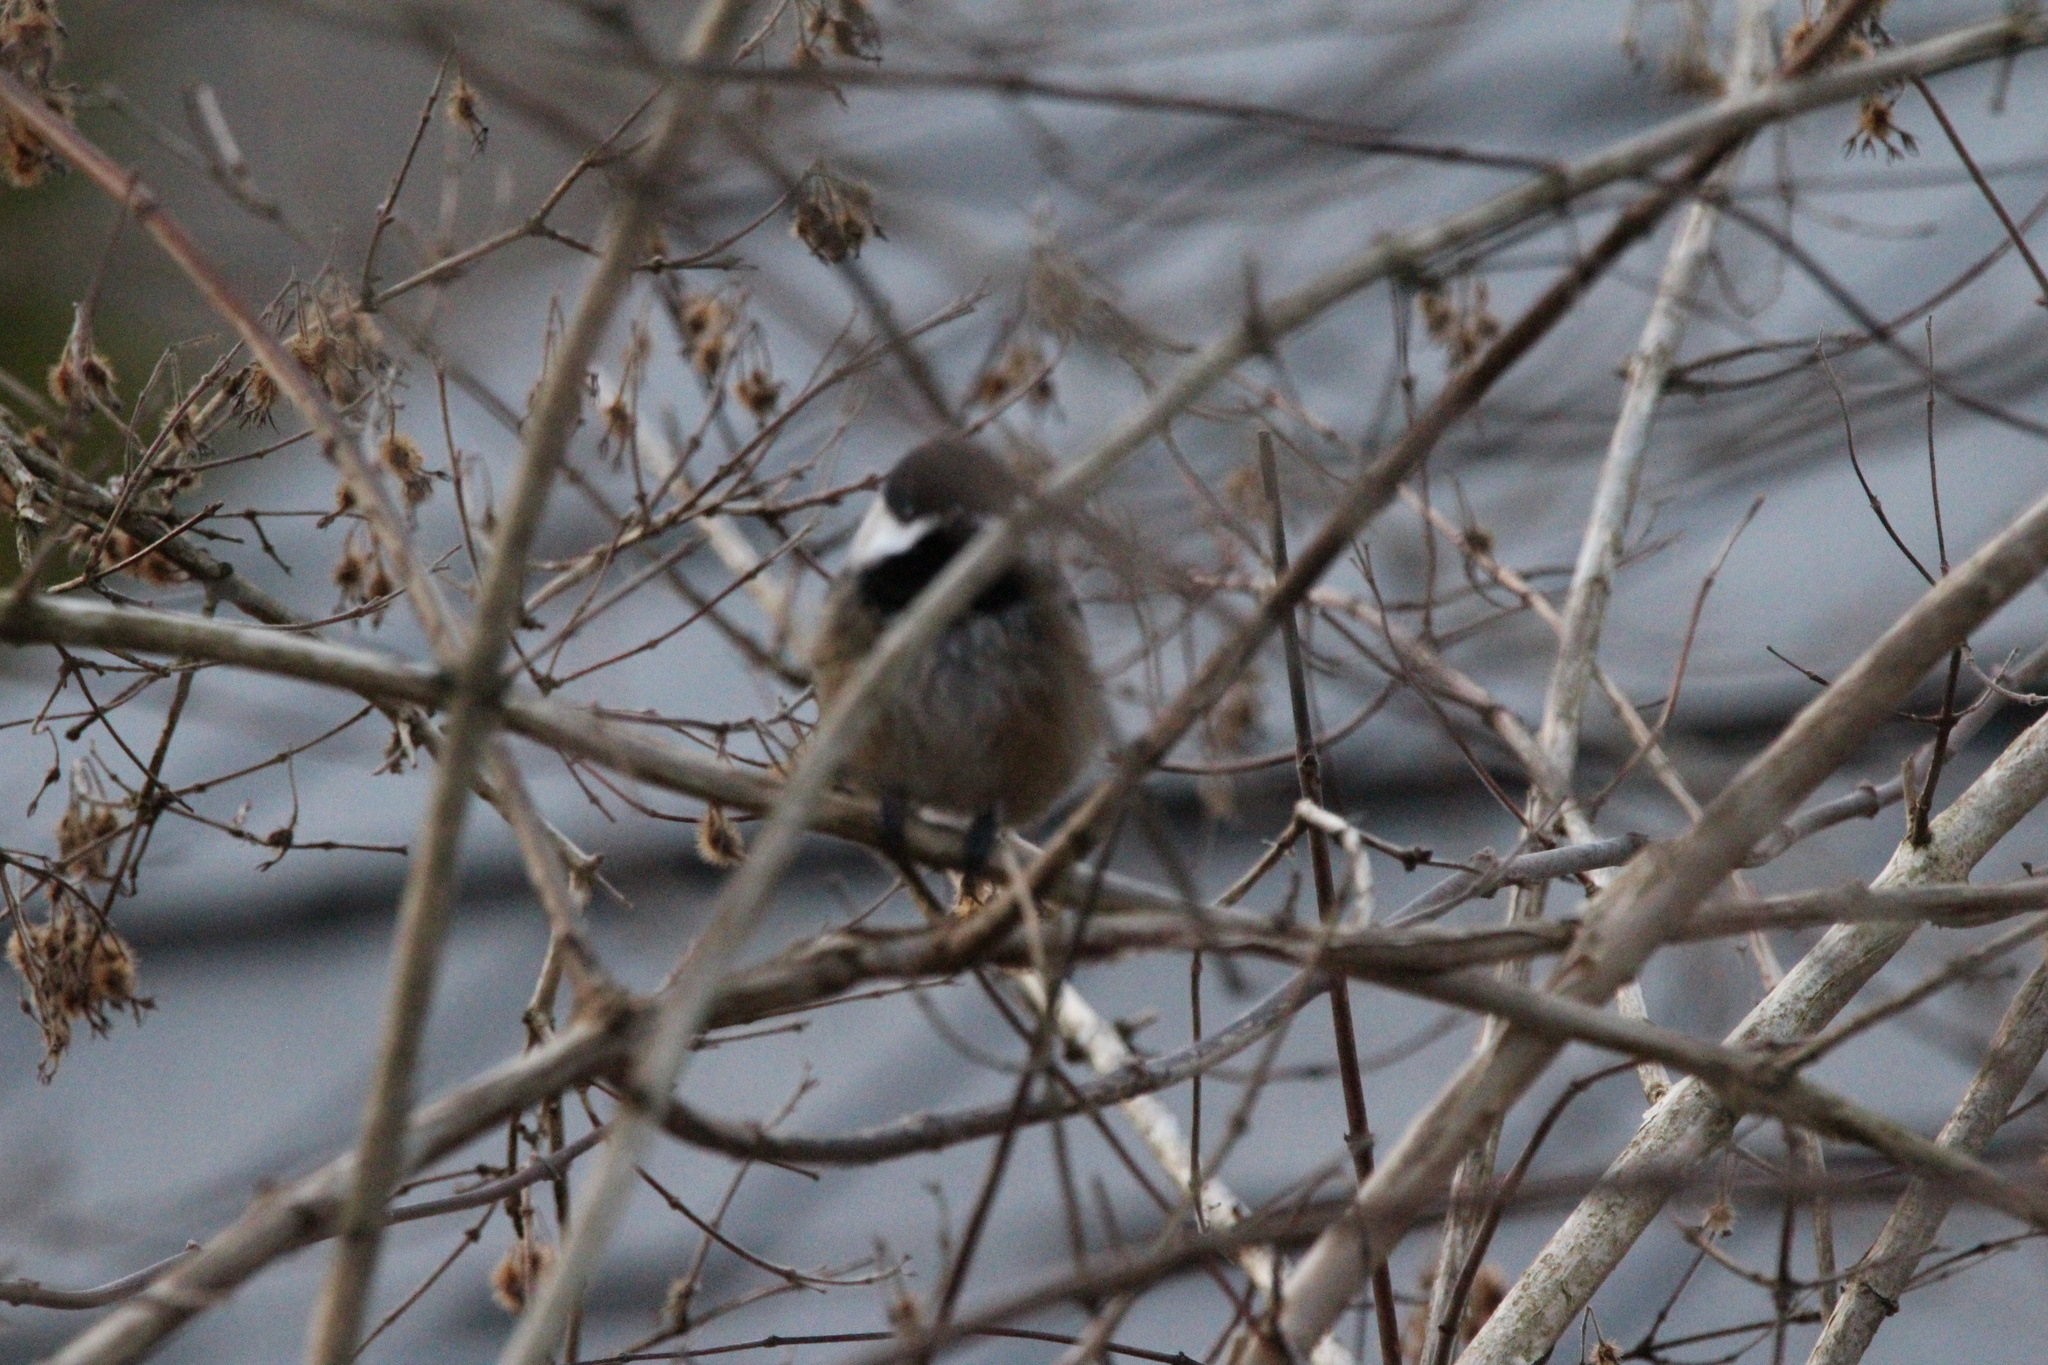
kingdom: Animalia
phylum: Chordata
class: Aves
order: Passeriformes
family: Paridae
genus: Poecile
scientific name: Poecile atricapillus
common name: Black-capped chickadee
